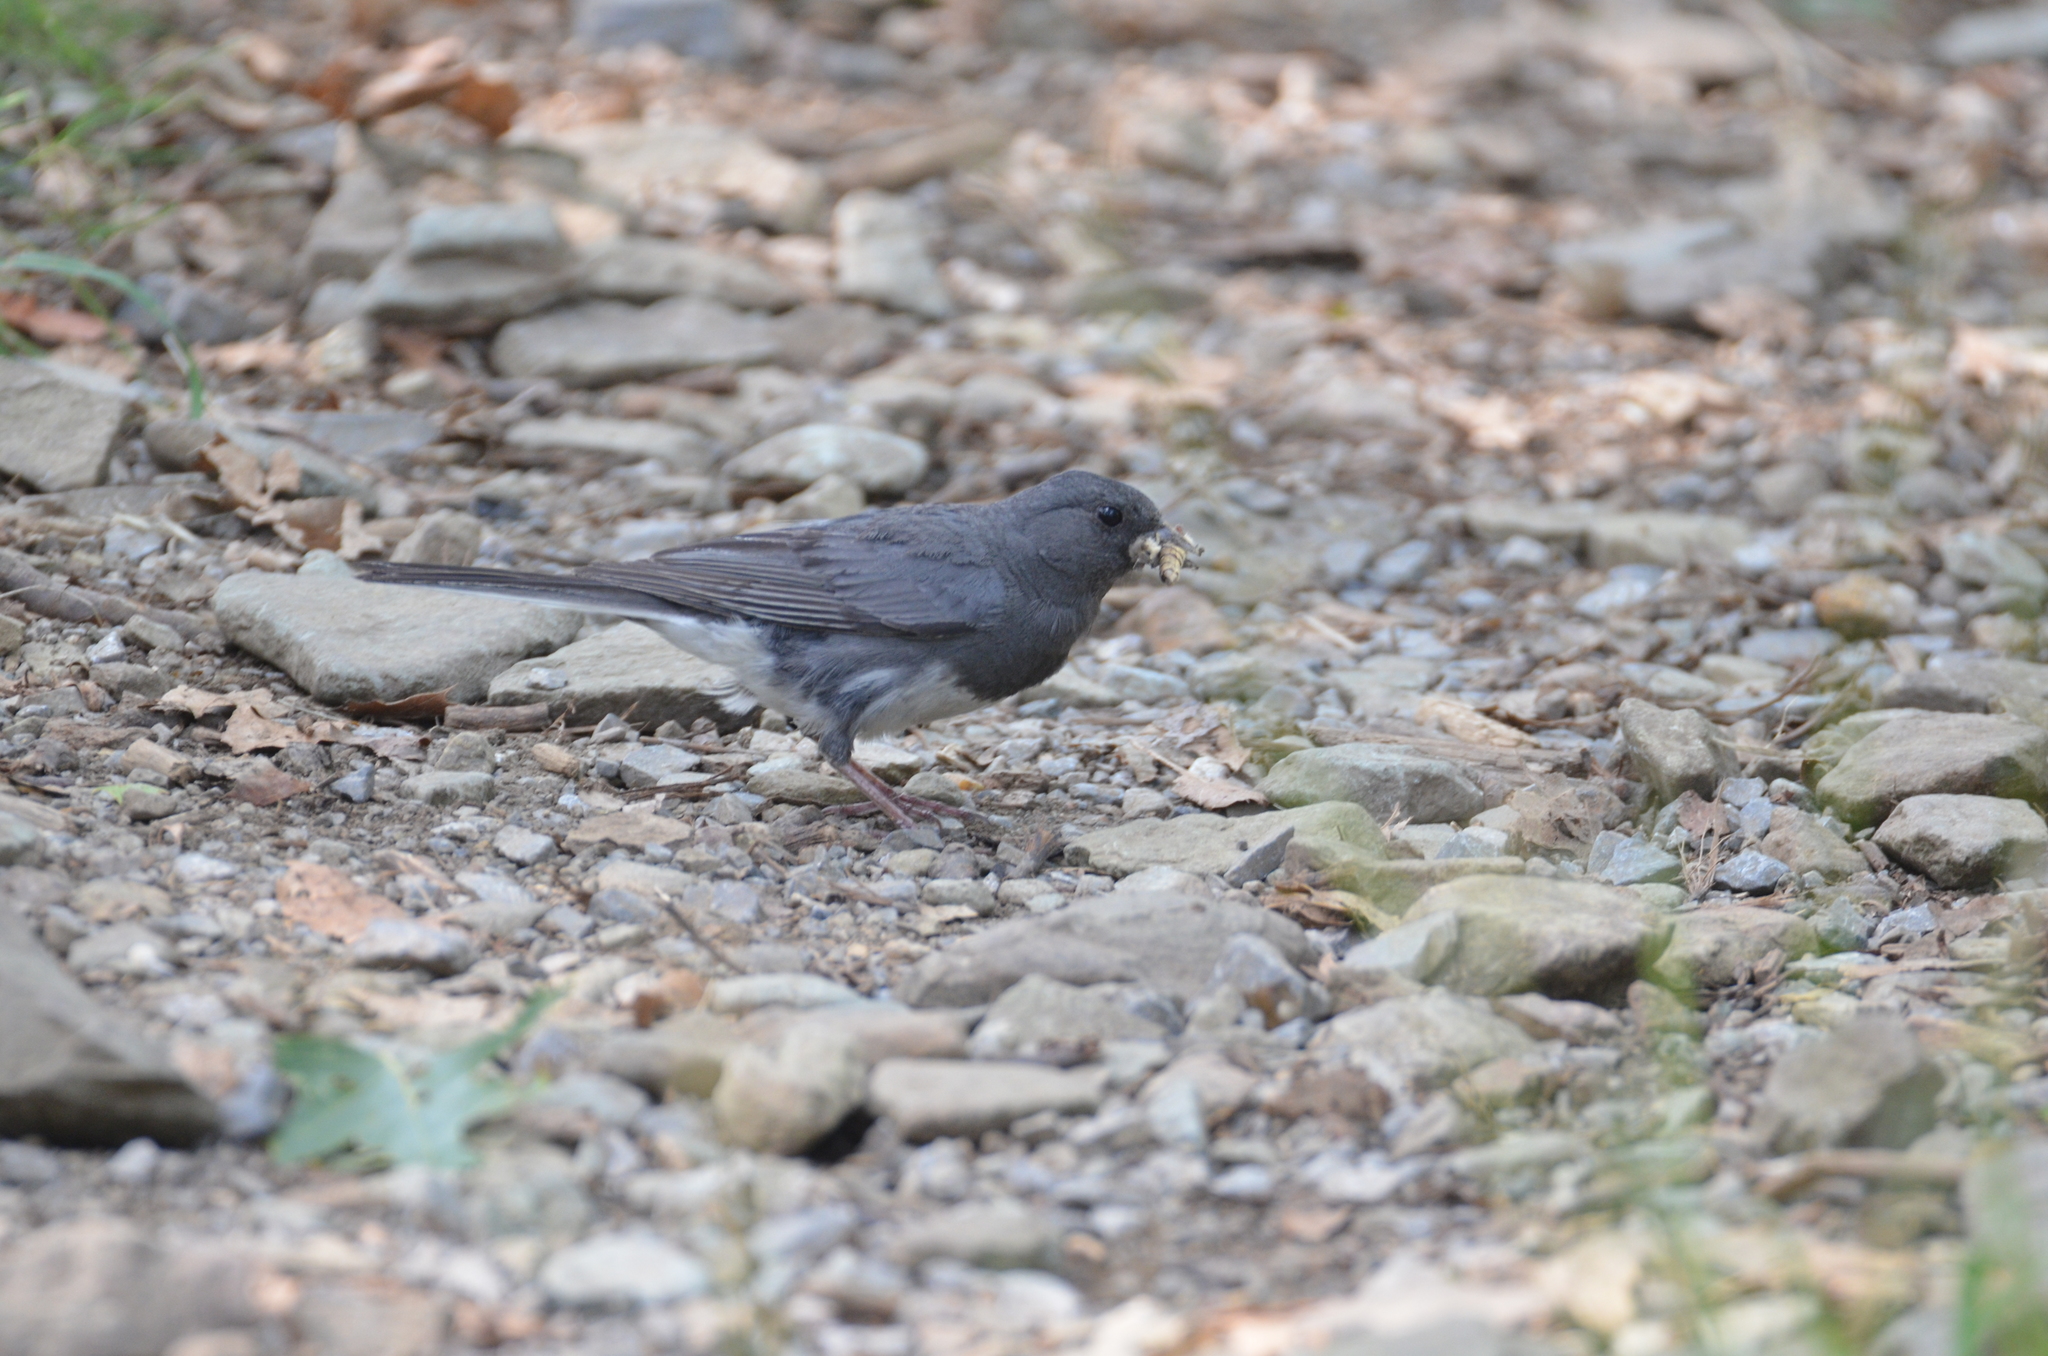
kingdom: Animalia
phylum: Chordata
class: Aves
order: Passeriformes
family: Passerellidae
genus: Junco
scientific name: Junco hyemalis
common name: Dark-eyed junco
